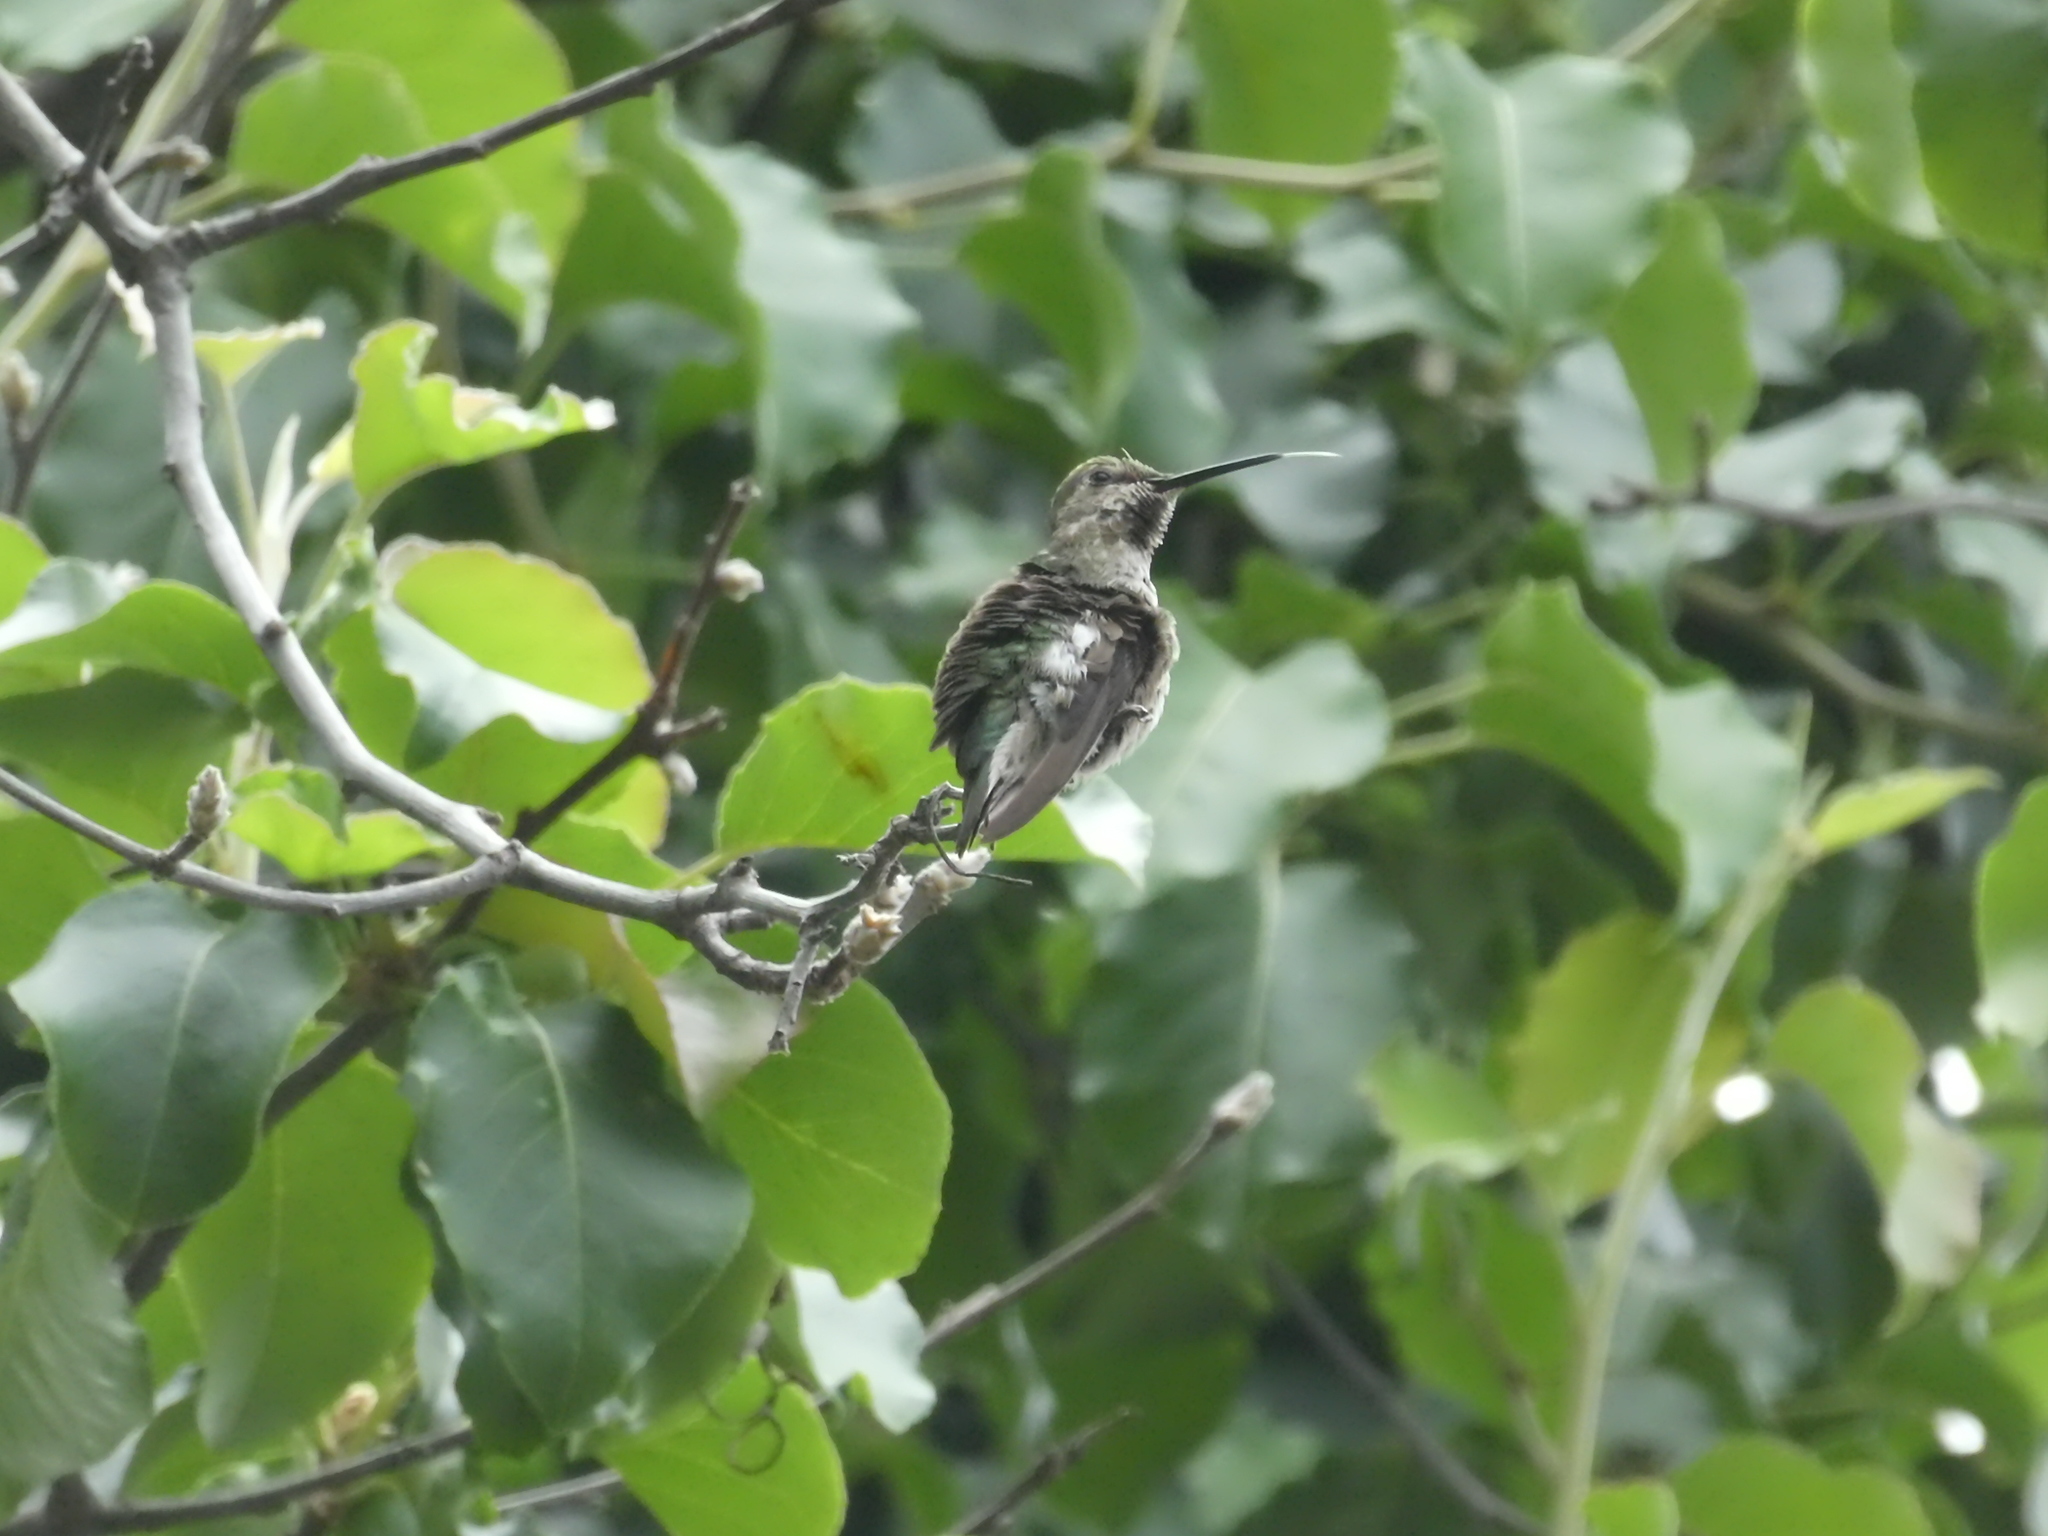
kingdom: Animalia
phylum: Chordata
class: Aves
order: Apodiformes
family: Trochilidae
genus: Calypte
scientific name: Calypte anna
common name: Anna's hummingbird
